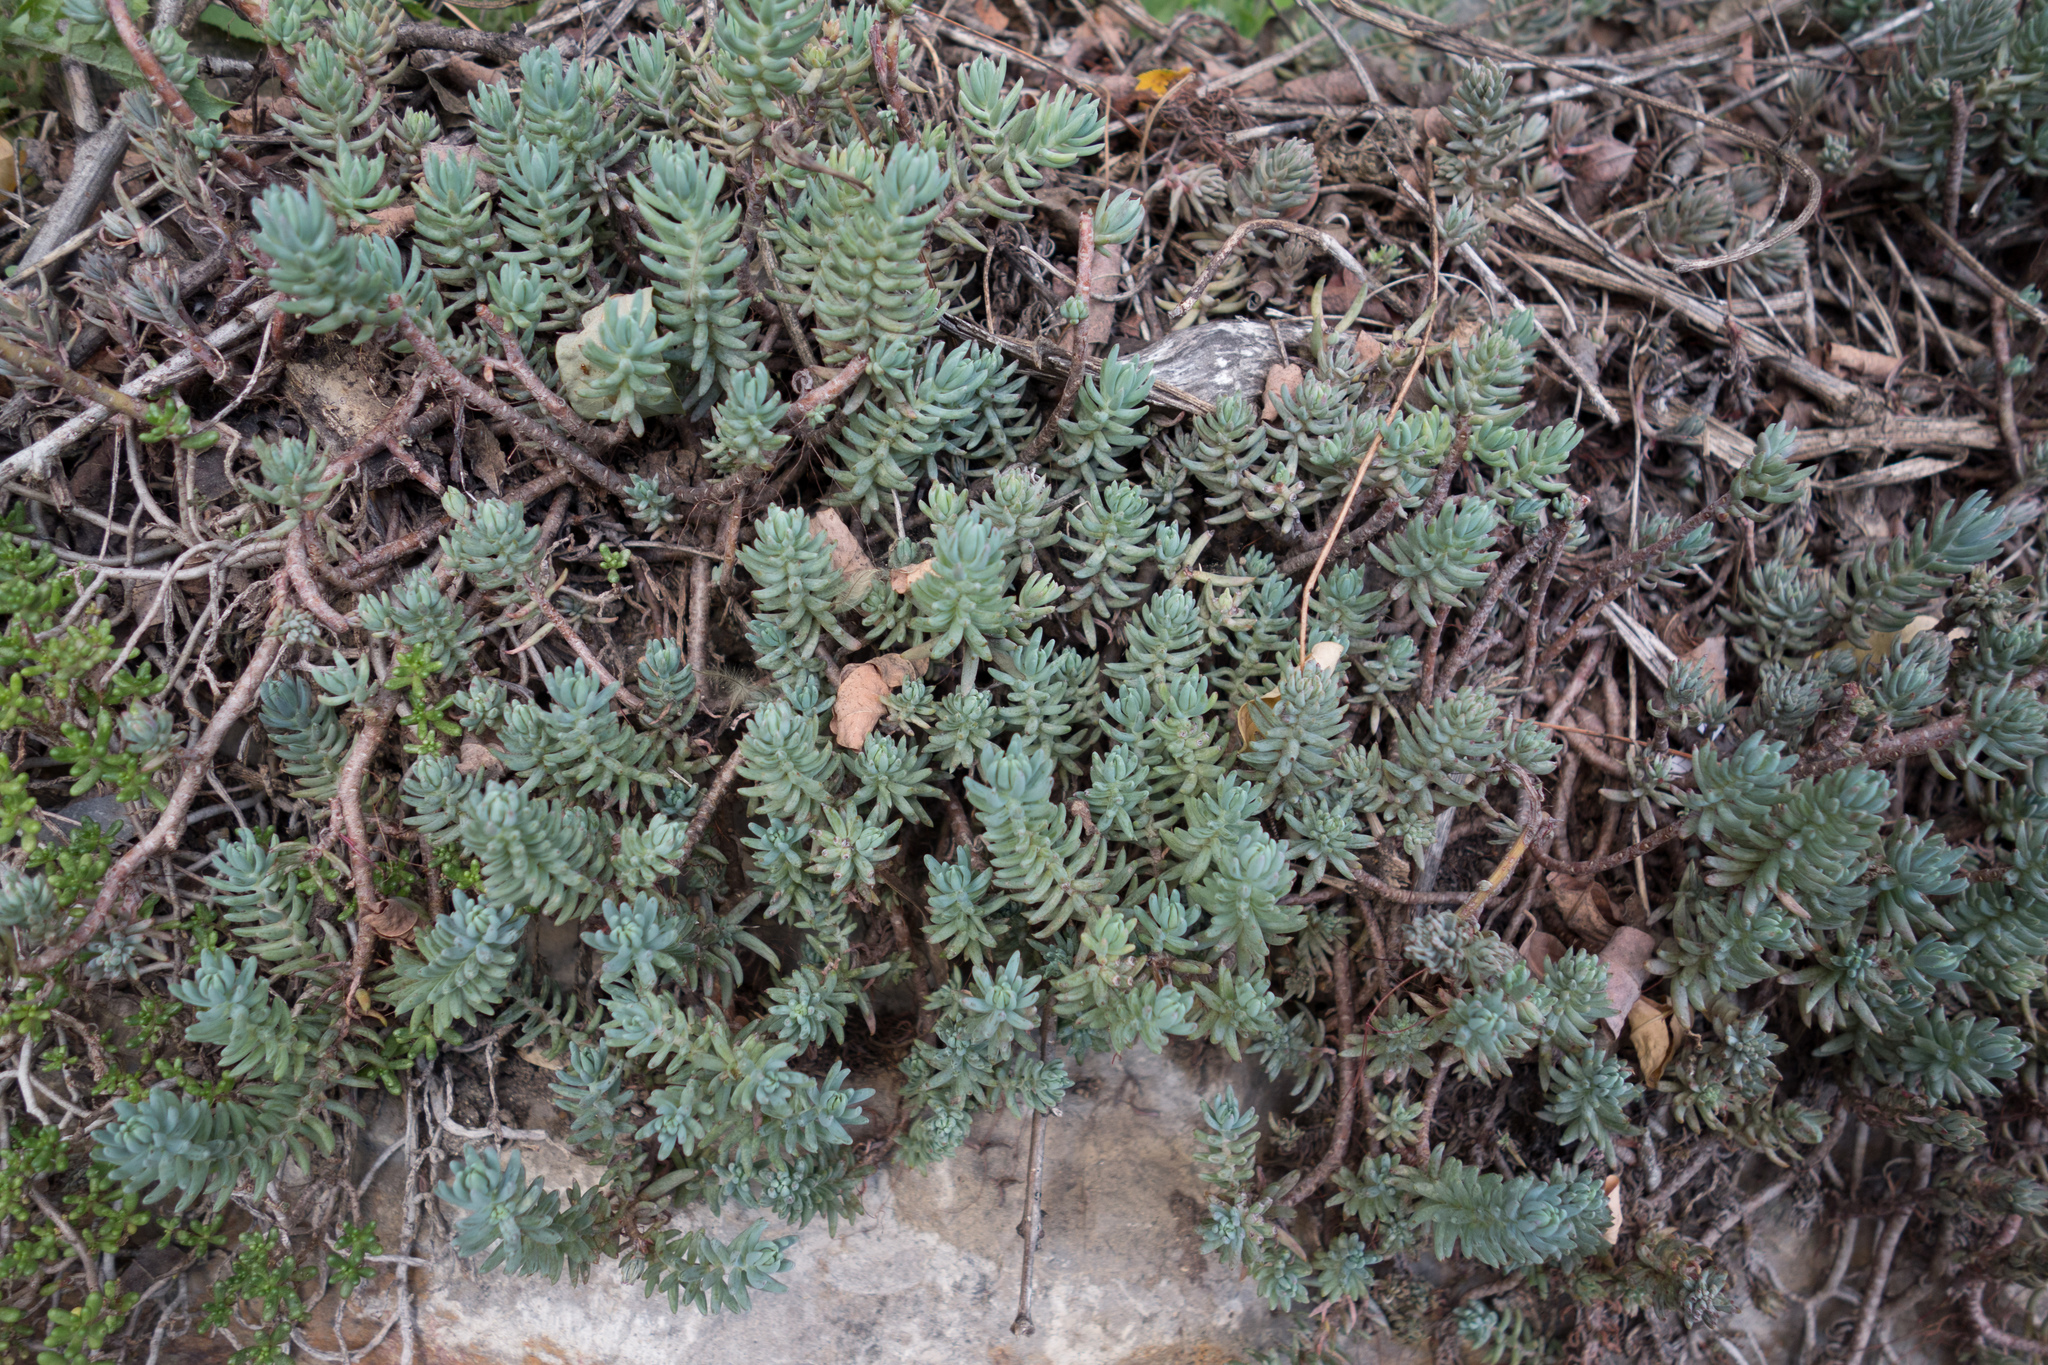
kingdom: Plantae
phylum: Tracheophyta
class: Magnoliopsida
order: Saxifragales
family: Crassulaceae
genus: Petrosedum
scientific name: Petrosedum
